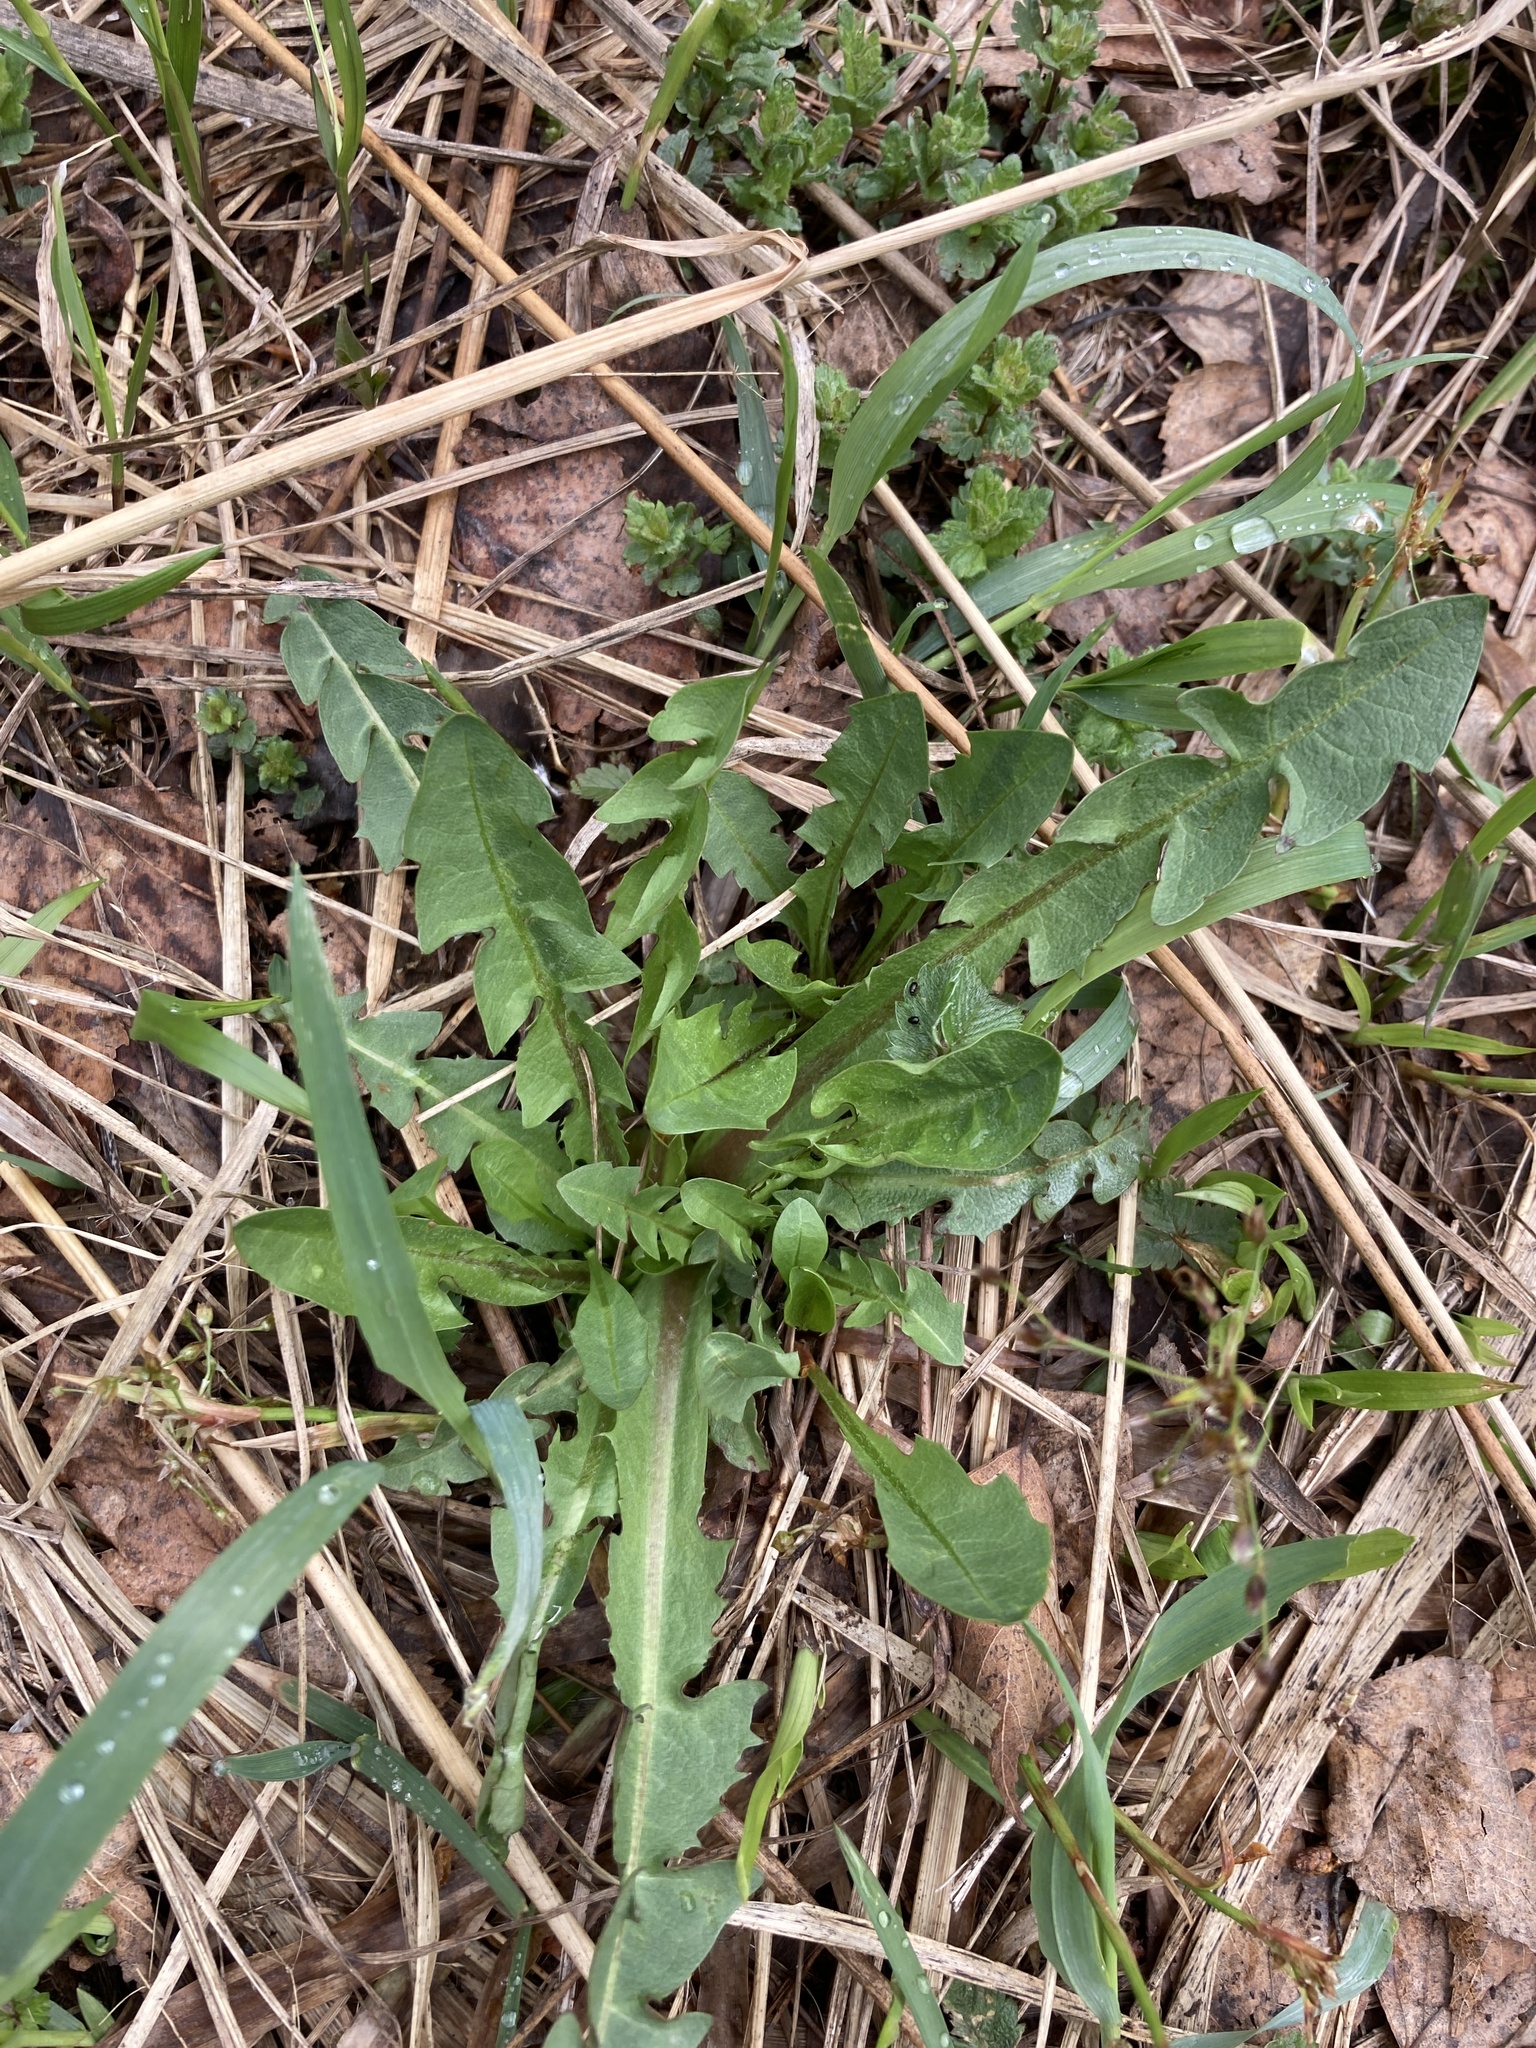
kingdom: Plantae
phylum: Tracheophyta
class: Magnoliopsida
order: Asterales
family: Asteraceae
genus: Taraxacum
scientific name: Taraxacum officinale
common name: Common dandelion
